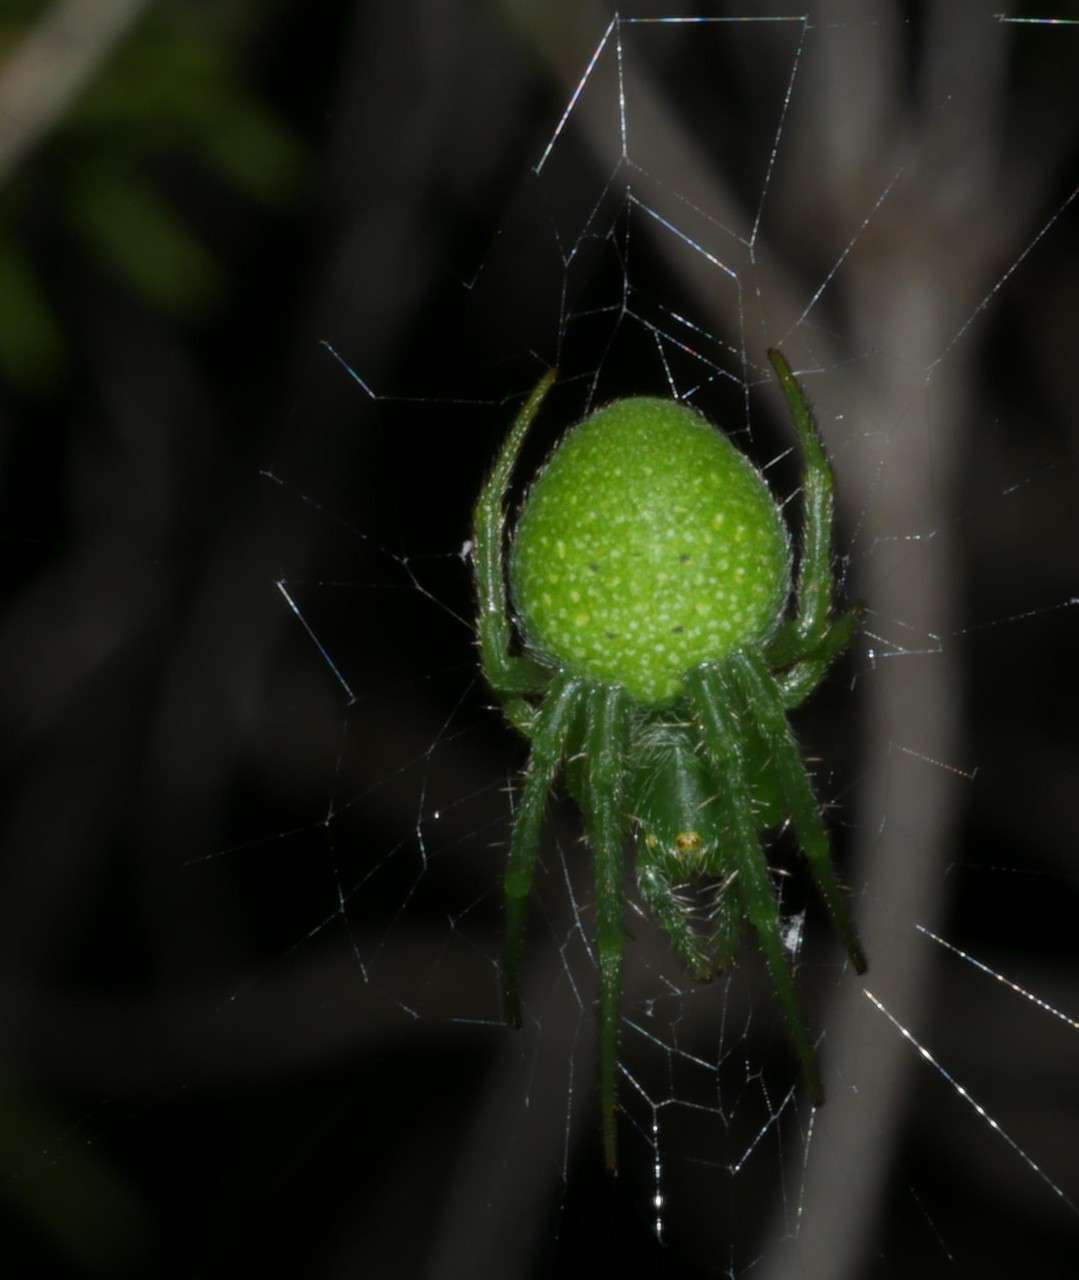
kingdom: Animalia
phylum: Arthropoda
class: Arachnida
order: Araneae
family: Araneidae
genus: Araneus
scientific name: Araneus circulissparsus
